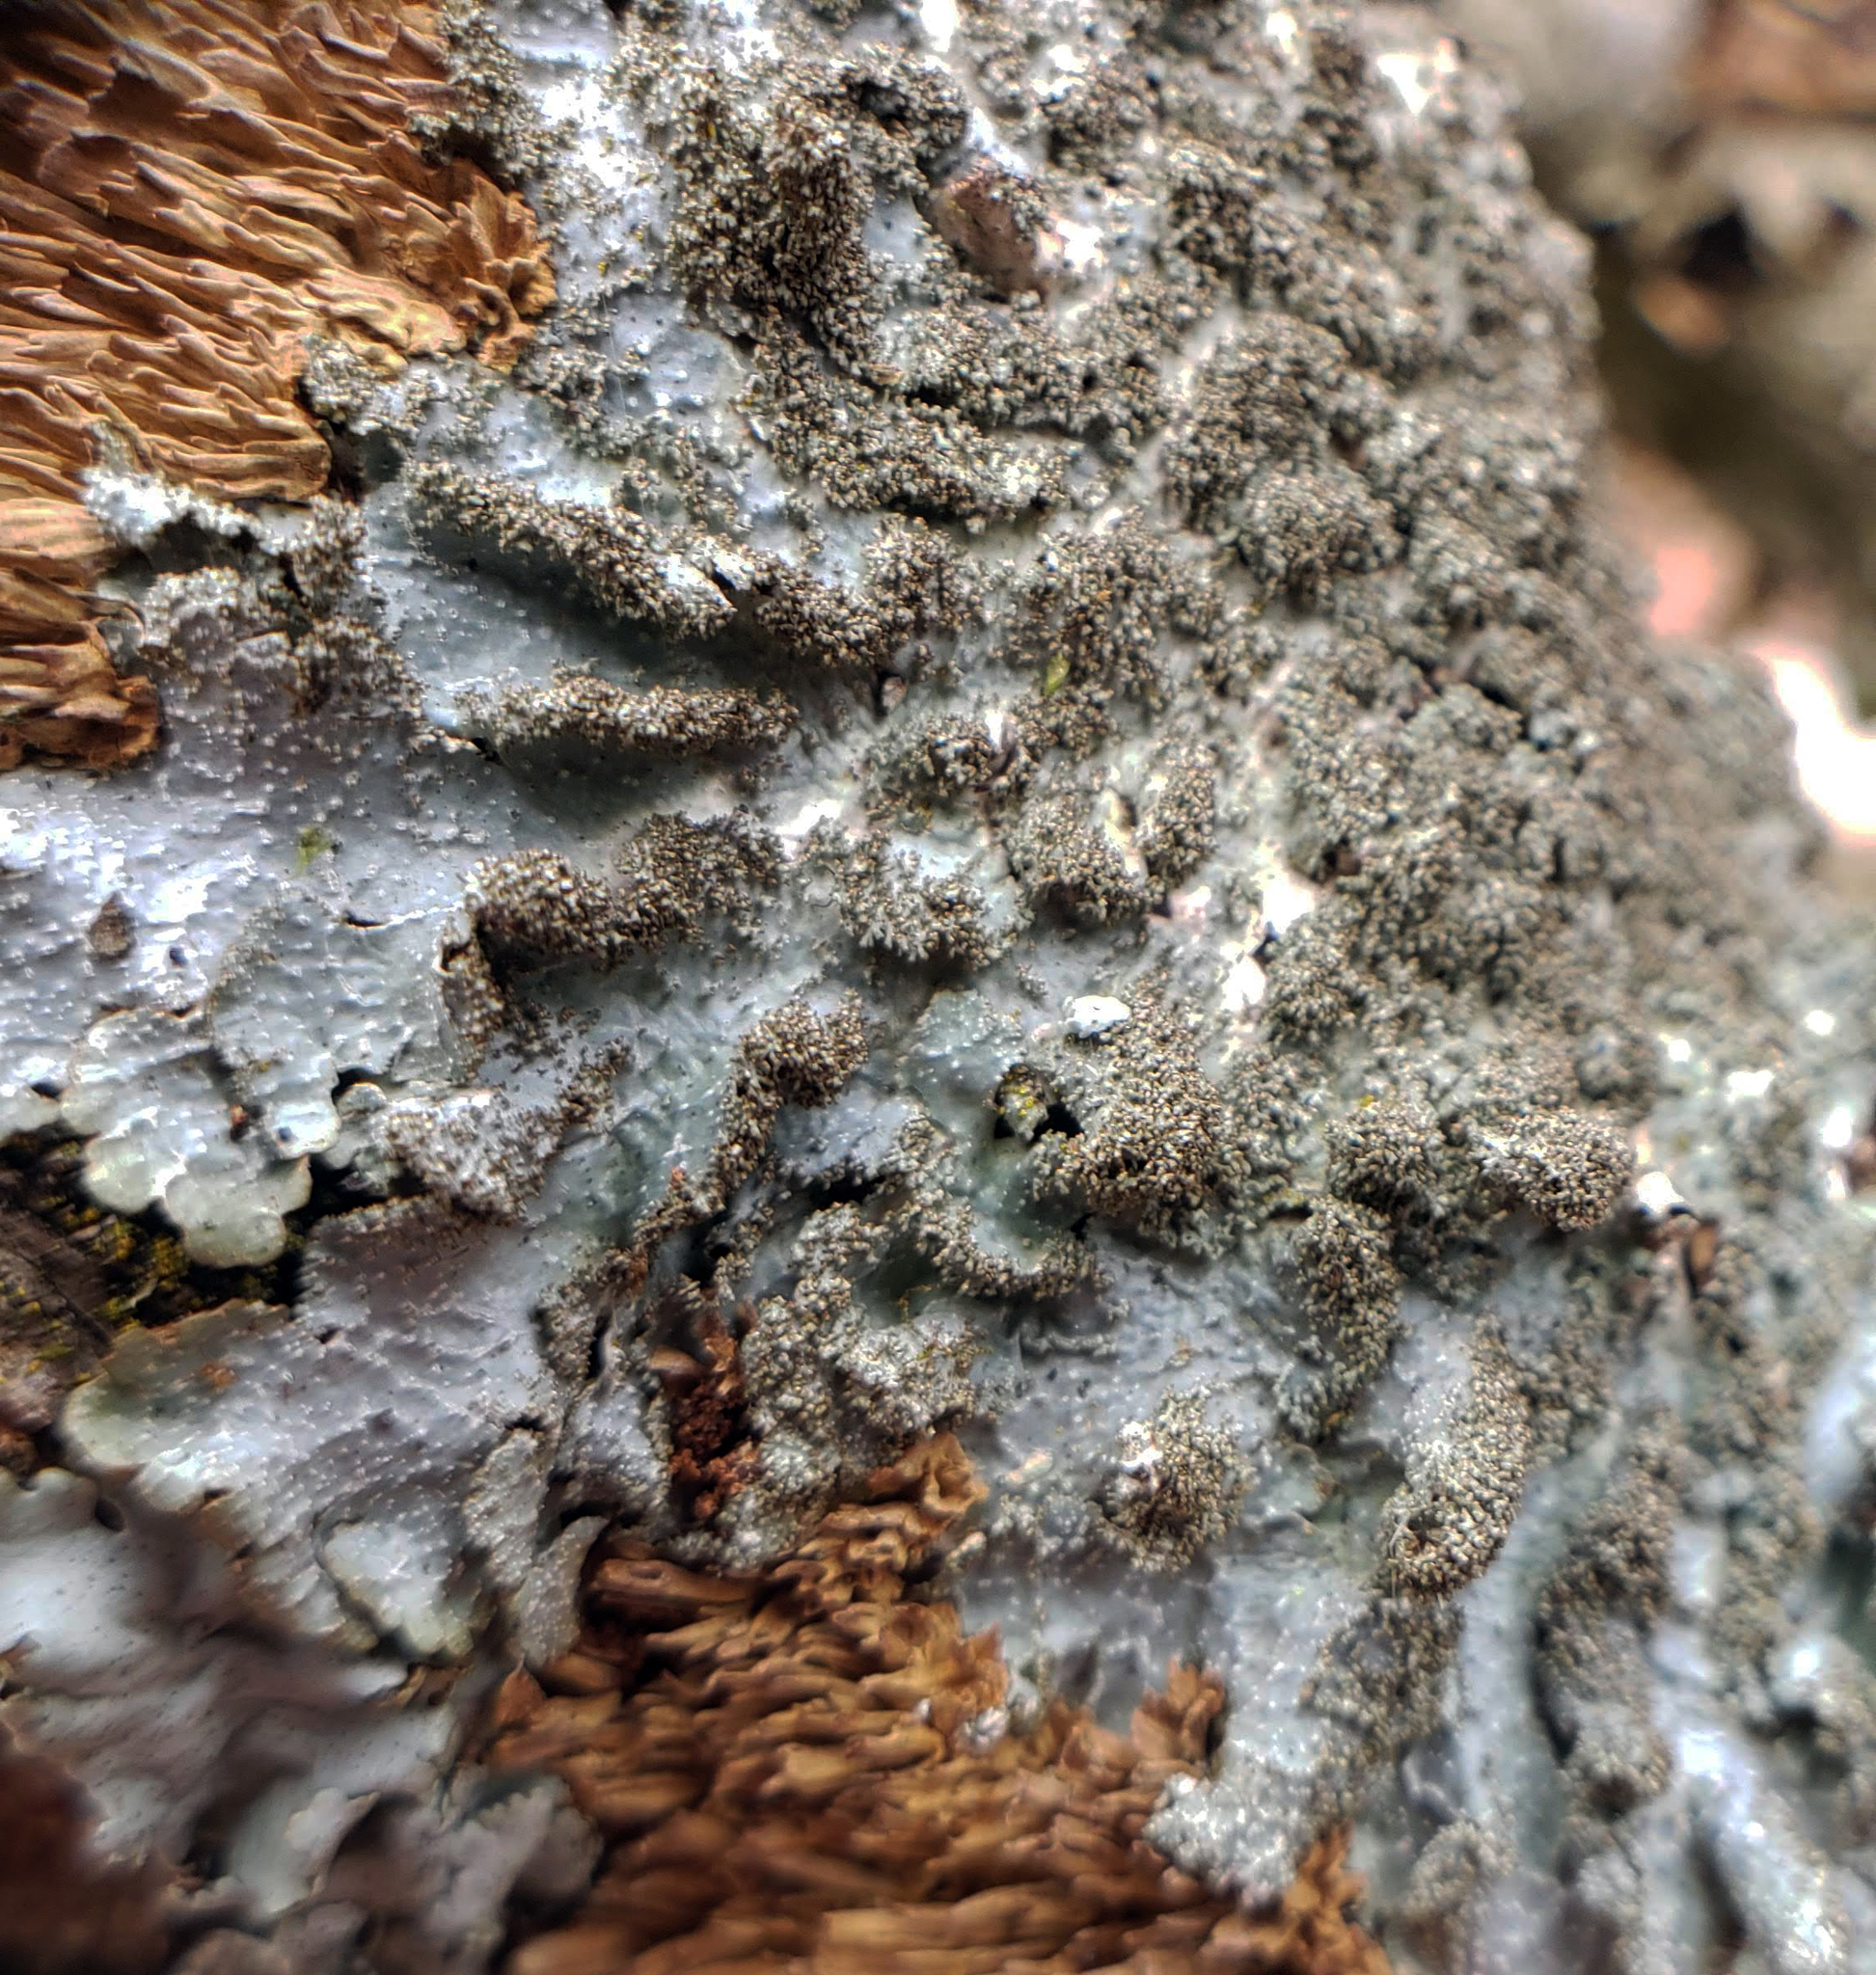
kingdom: Fungi
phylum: Ascomycota
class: Lecanoromycetes
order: Lecanorales
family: Parmeliaceae
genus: Punctelia
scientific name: Punctelia rudecta
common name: Rough speckled shield lichen
